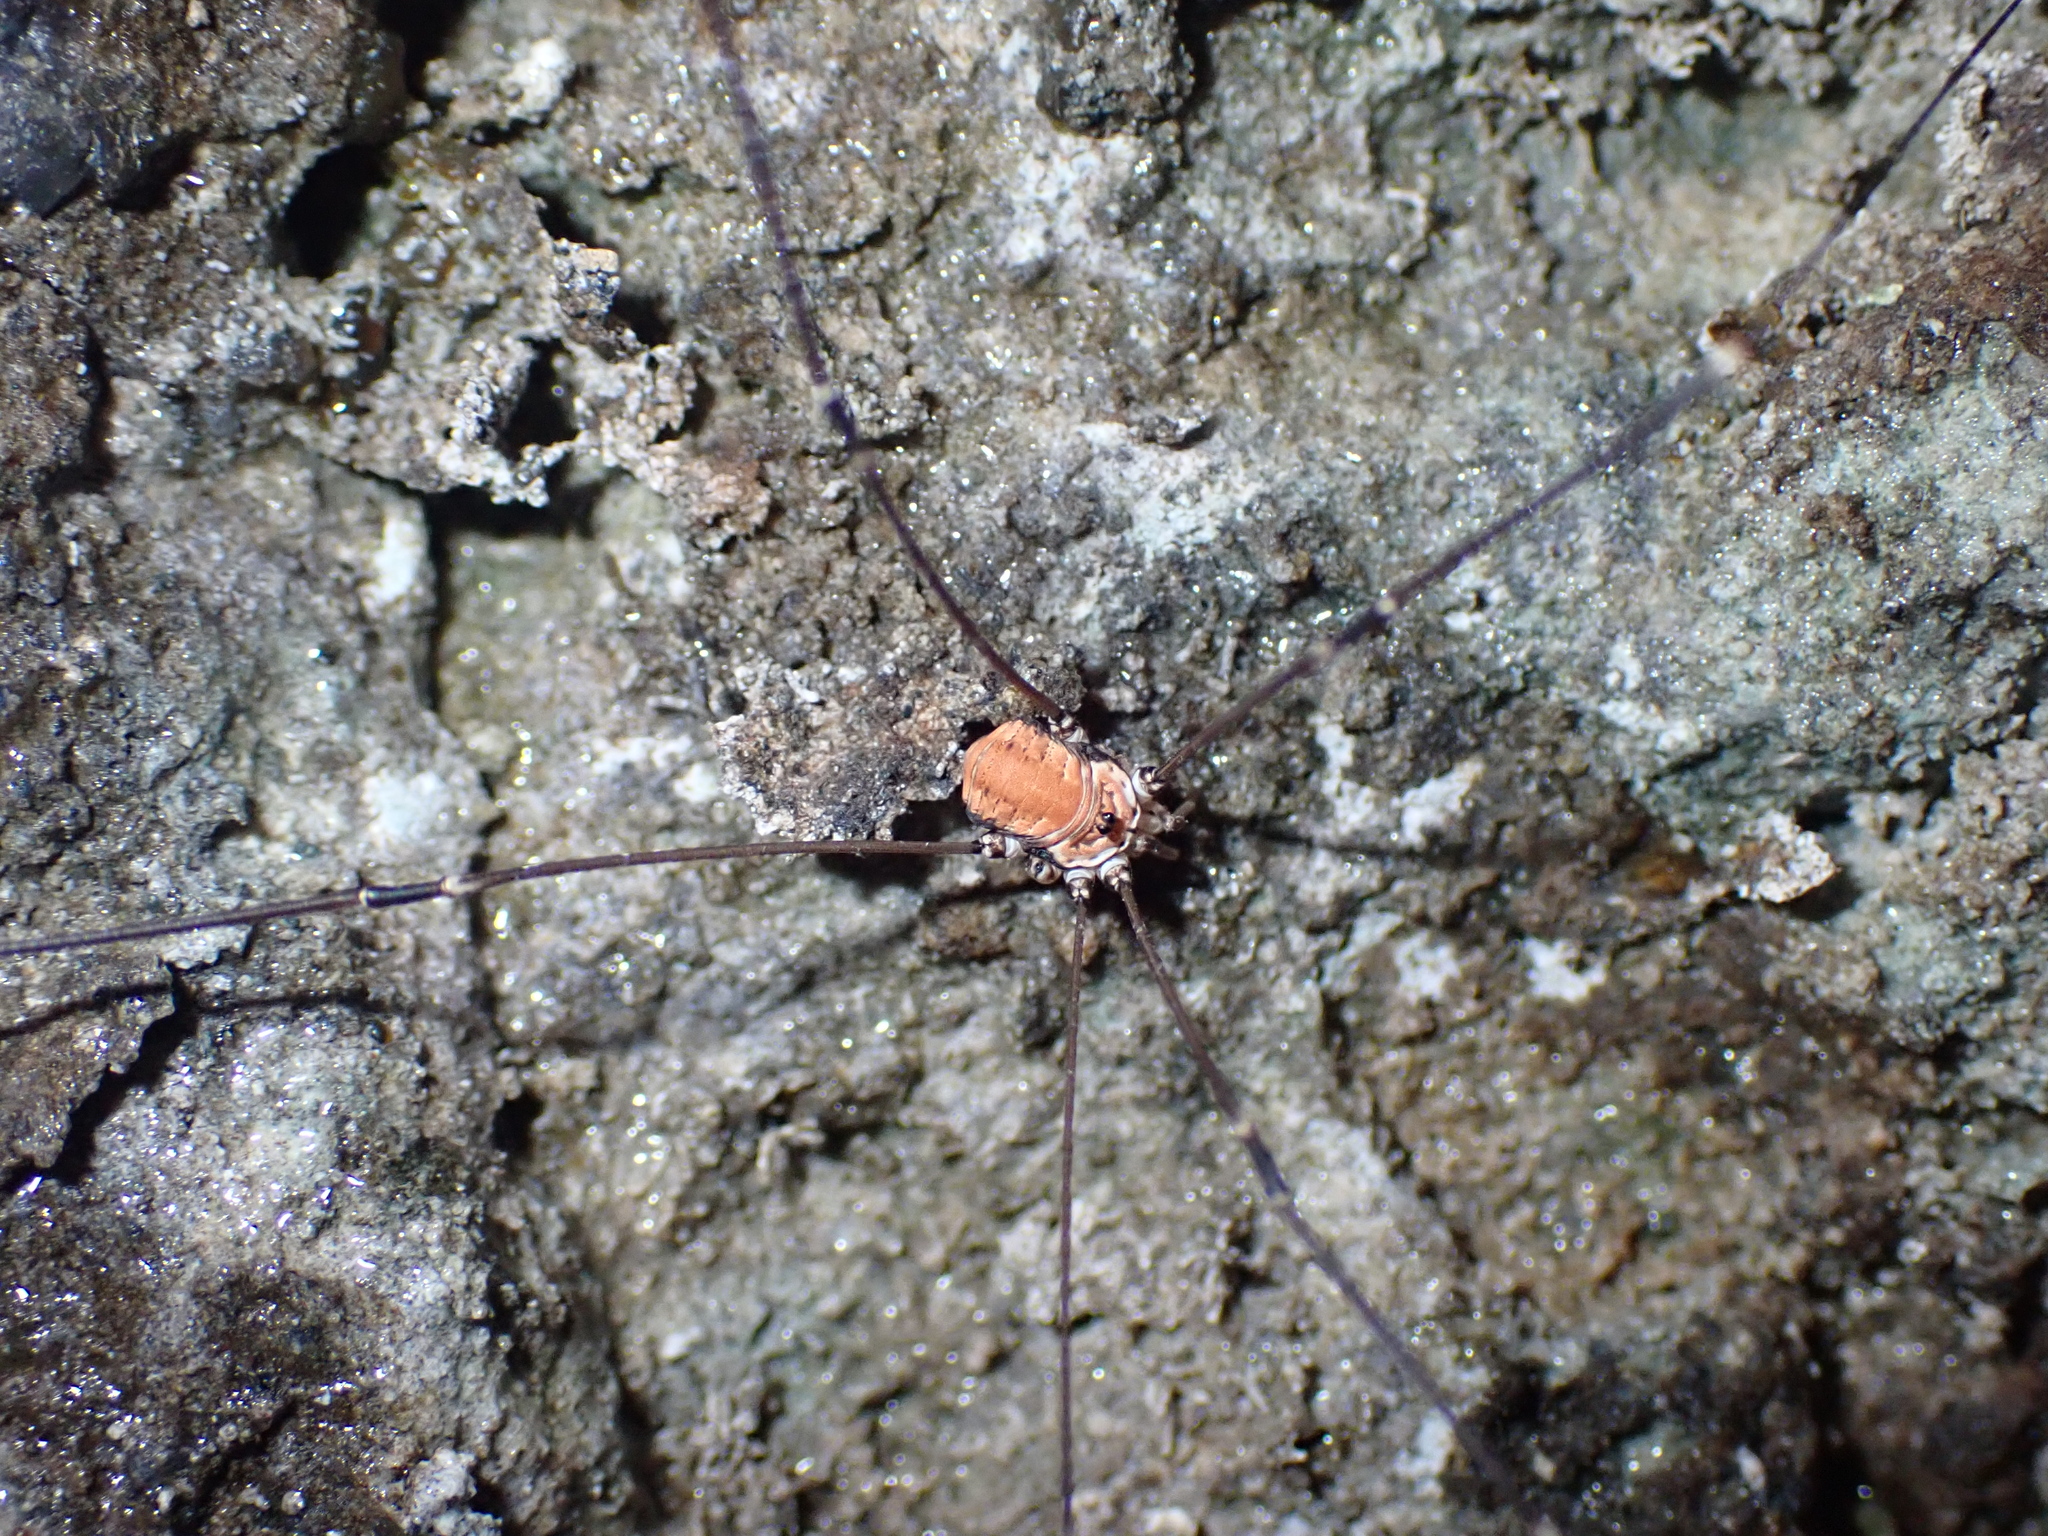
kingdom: Animalia
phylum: Arthropoda
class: Arachnida
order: Opiliones
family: Sclerosomatidae
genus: Leiobunum
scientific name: Leiobunum limbatum
